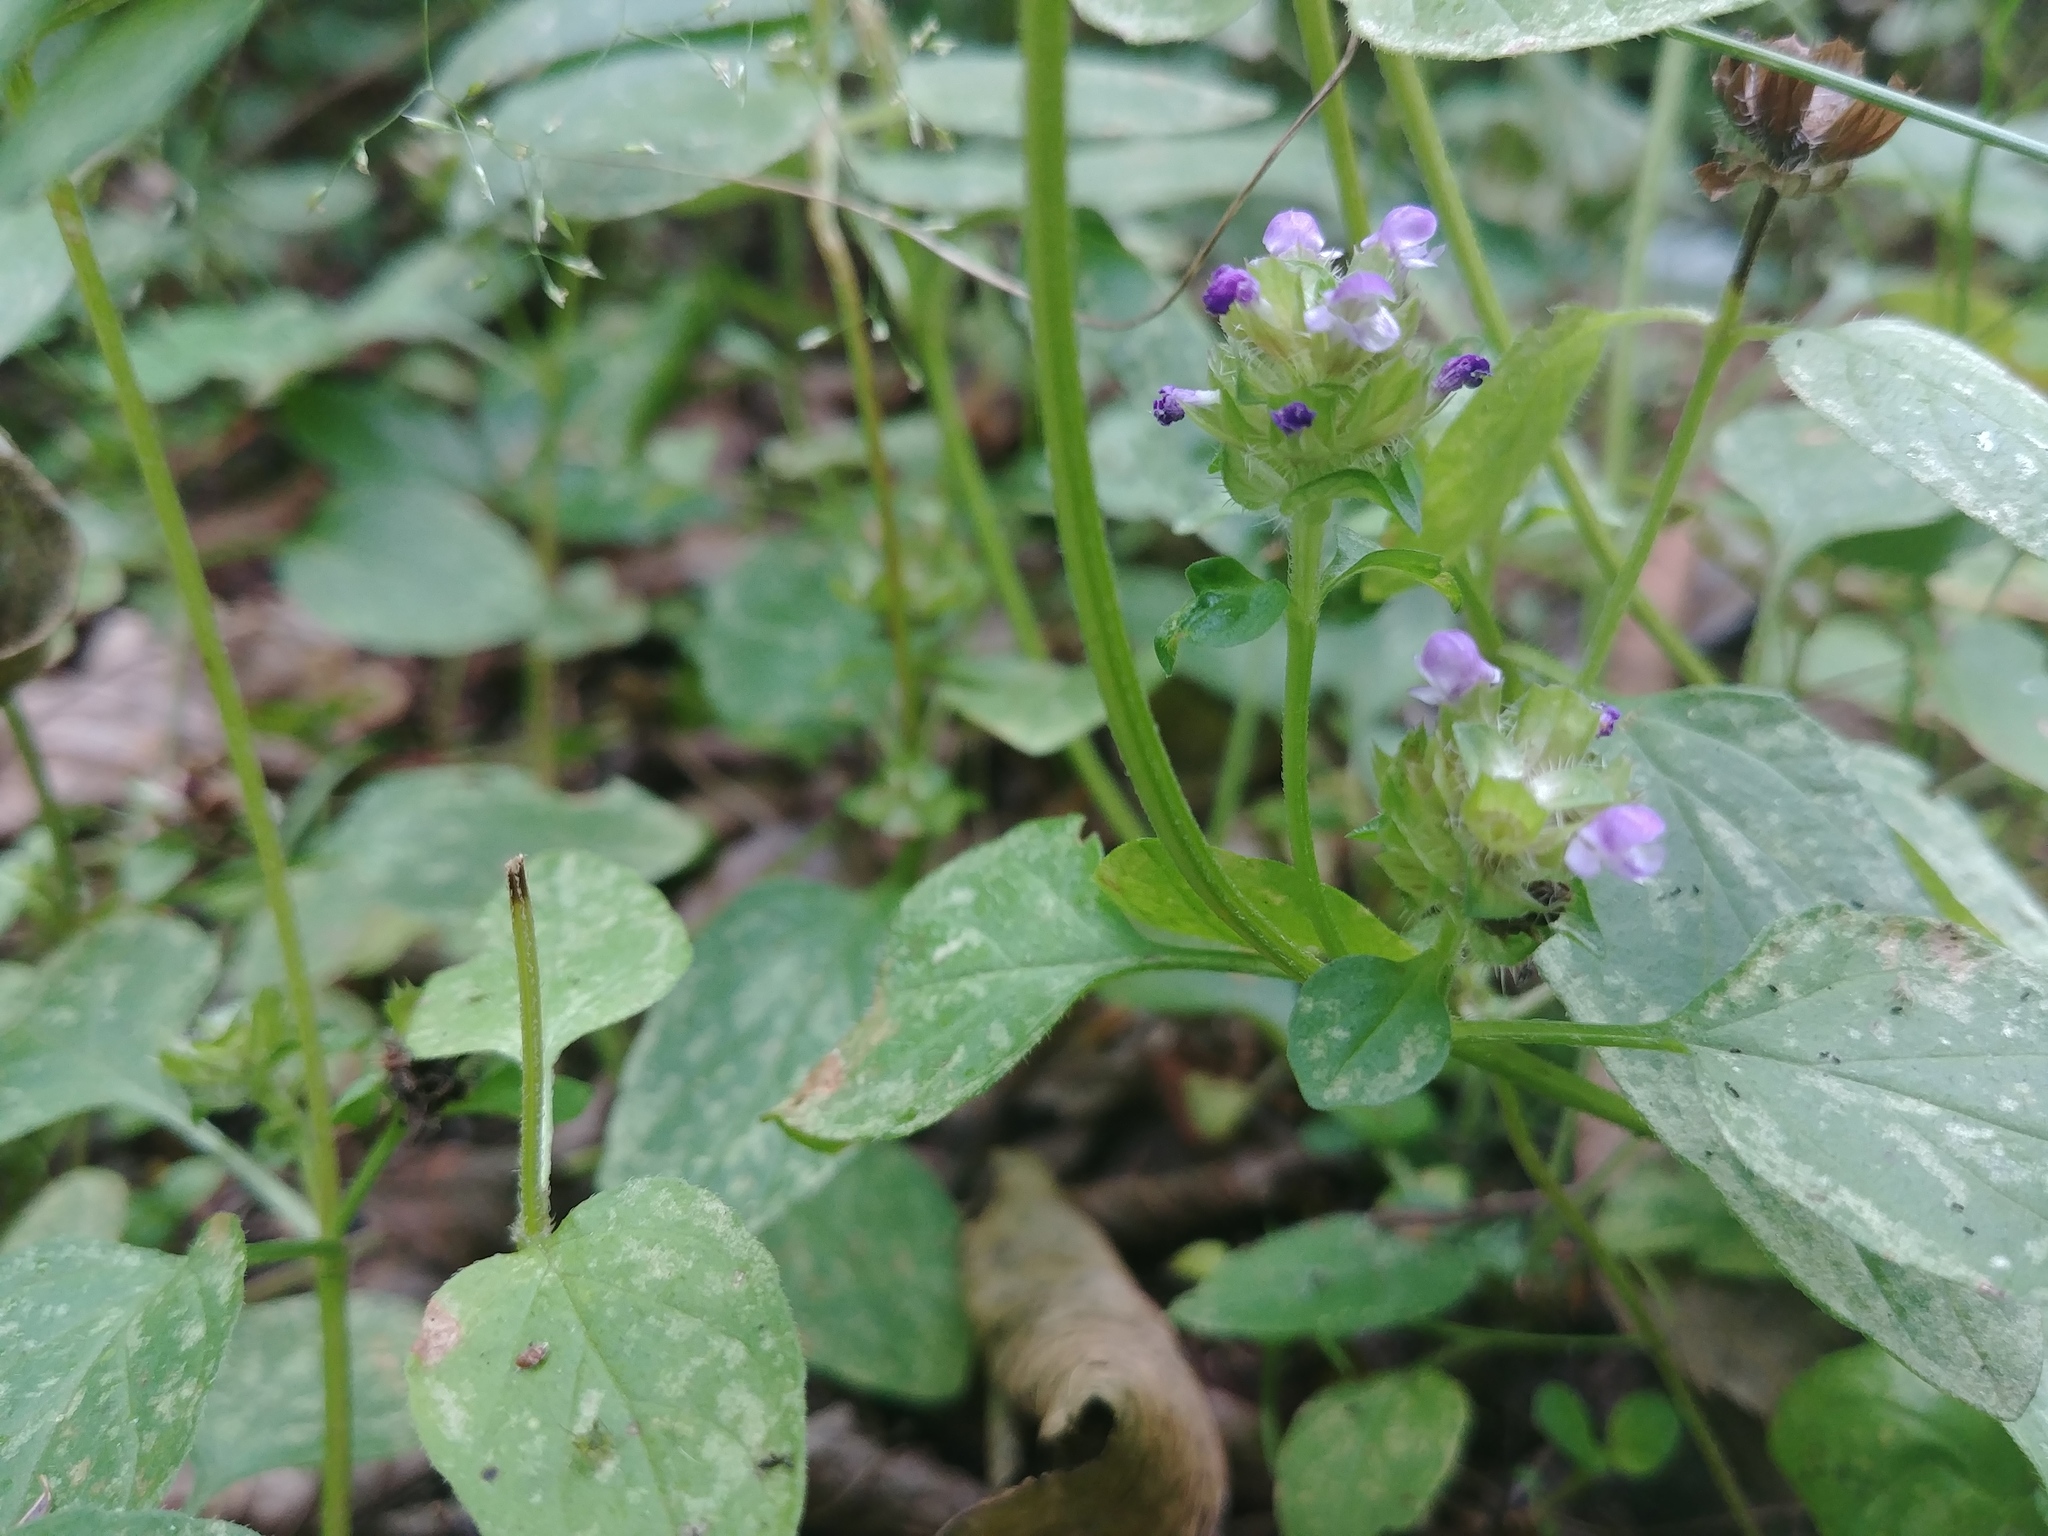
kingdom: Plantae
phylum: Tracheophyta
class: Magnoliopsida
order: Lamiales
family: Lamiaceae
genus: Prunella
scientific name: Prunella vulgaris
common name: Heal-all
